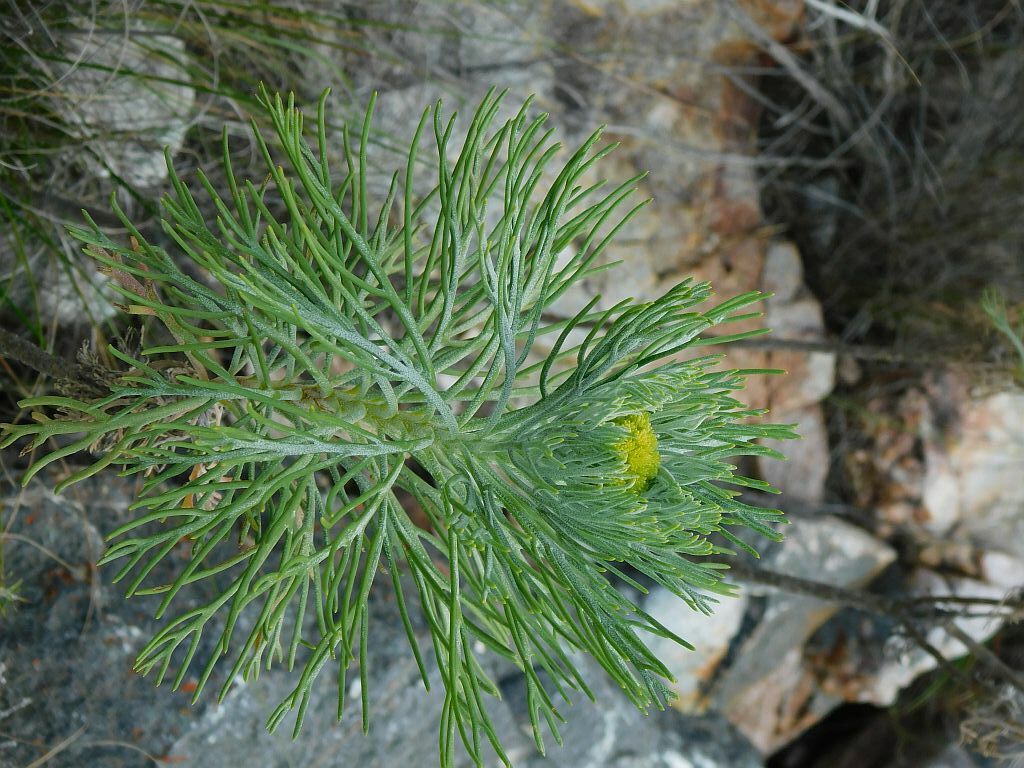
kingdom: Plantae
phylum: Tracheophyta
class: Magnoliopsida
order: Asterales
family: Asteraceae
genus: Hymenolepis
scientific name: Hymenolepis crithmifolia
